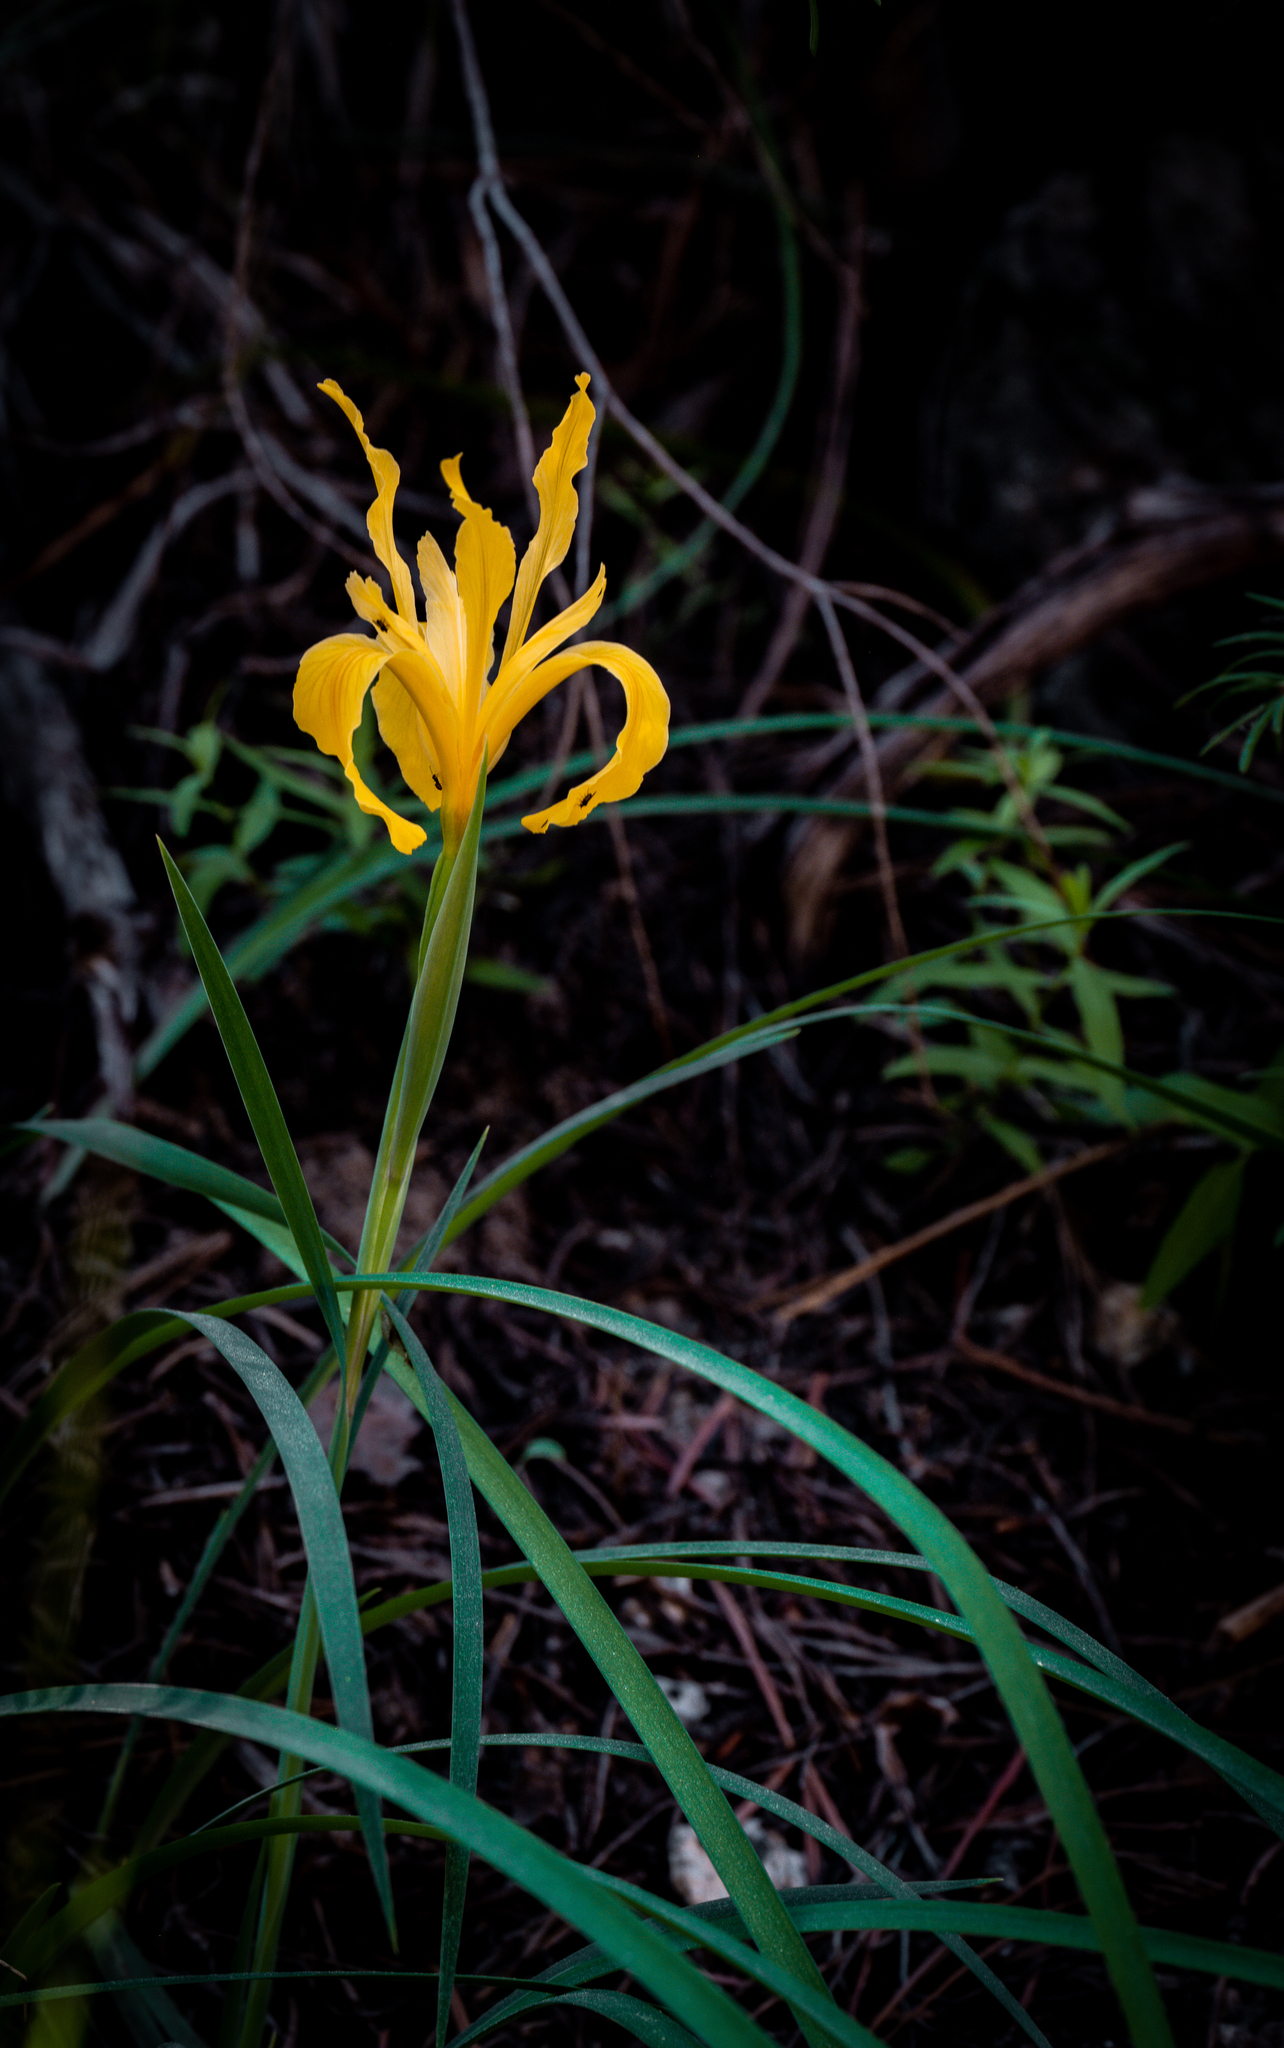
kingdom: Plantae
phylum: Tracheophyta
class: Liliopsida
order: Asparagales
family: Iridaceae
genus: Iris
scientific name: Iris hartwegii
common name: Sierra iris
